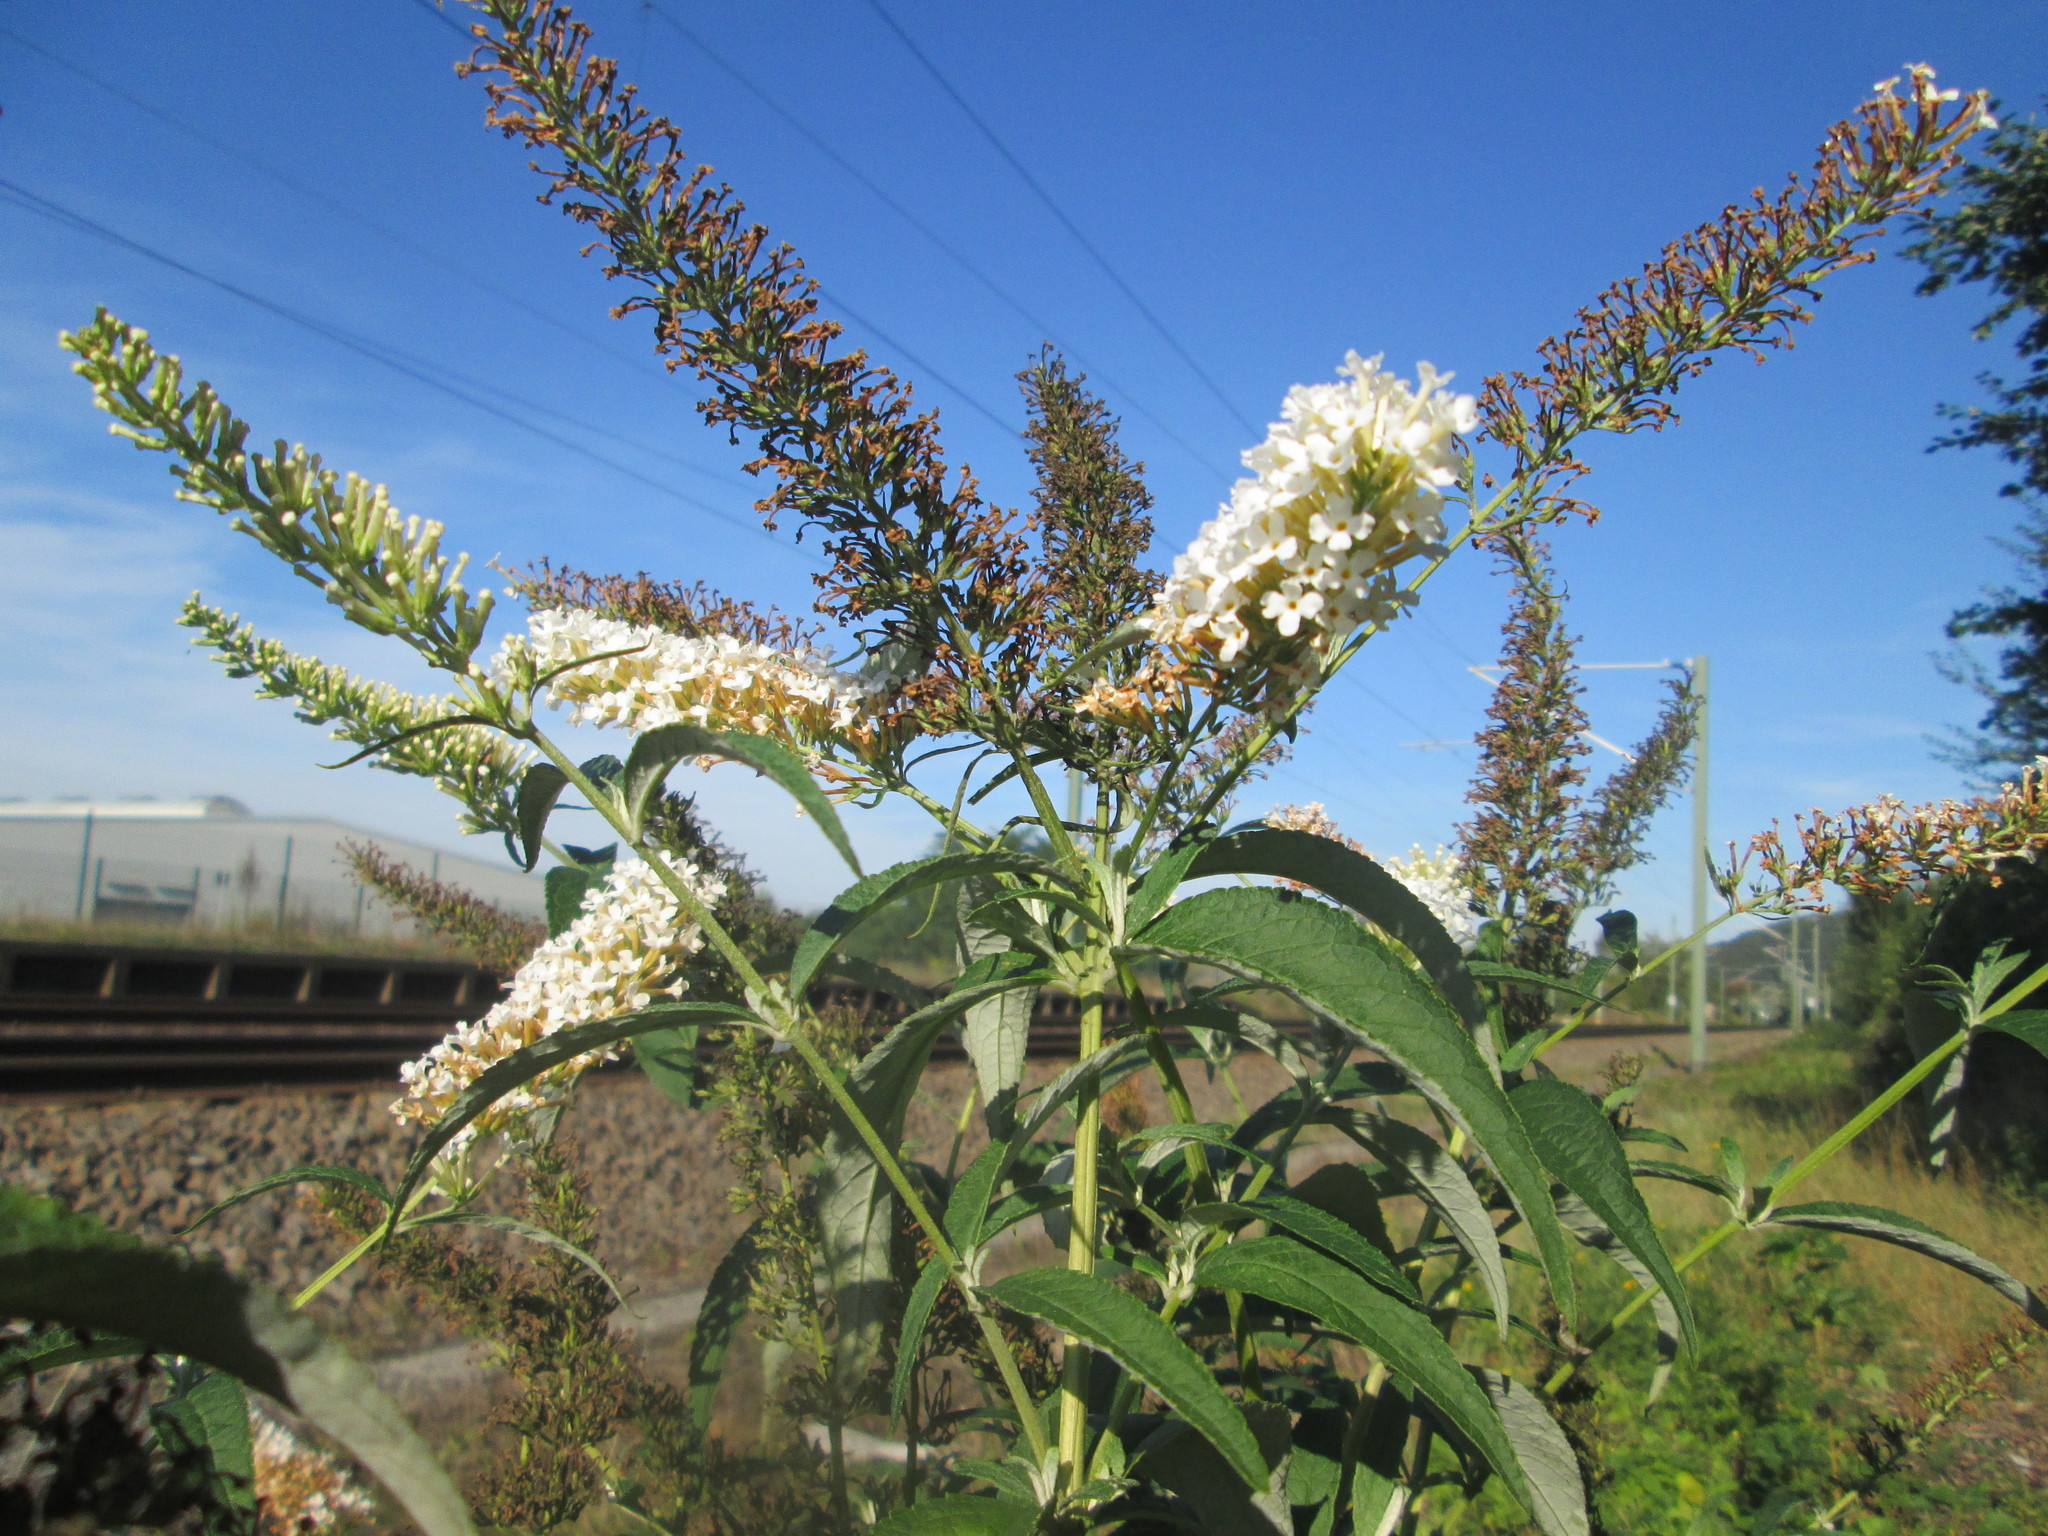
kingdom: Plantae
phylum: Tracheophyta
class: Magnoliopsida
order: Lamiales
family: Scrophulariaceae
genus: Buddleja
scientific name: Buddleja davidii
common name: Butterfly-bush
